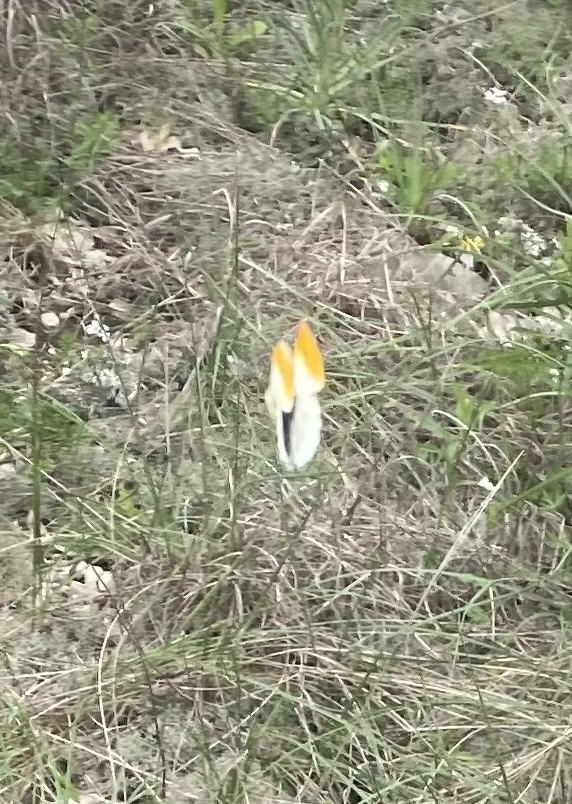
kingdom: Animalia
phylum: Arthropoda
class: Insecta
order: Lepidoptera
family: Pieridae
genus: Anthocharis
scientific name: Anthocharis cardamines
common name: Orange-tip
